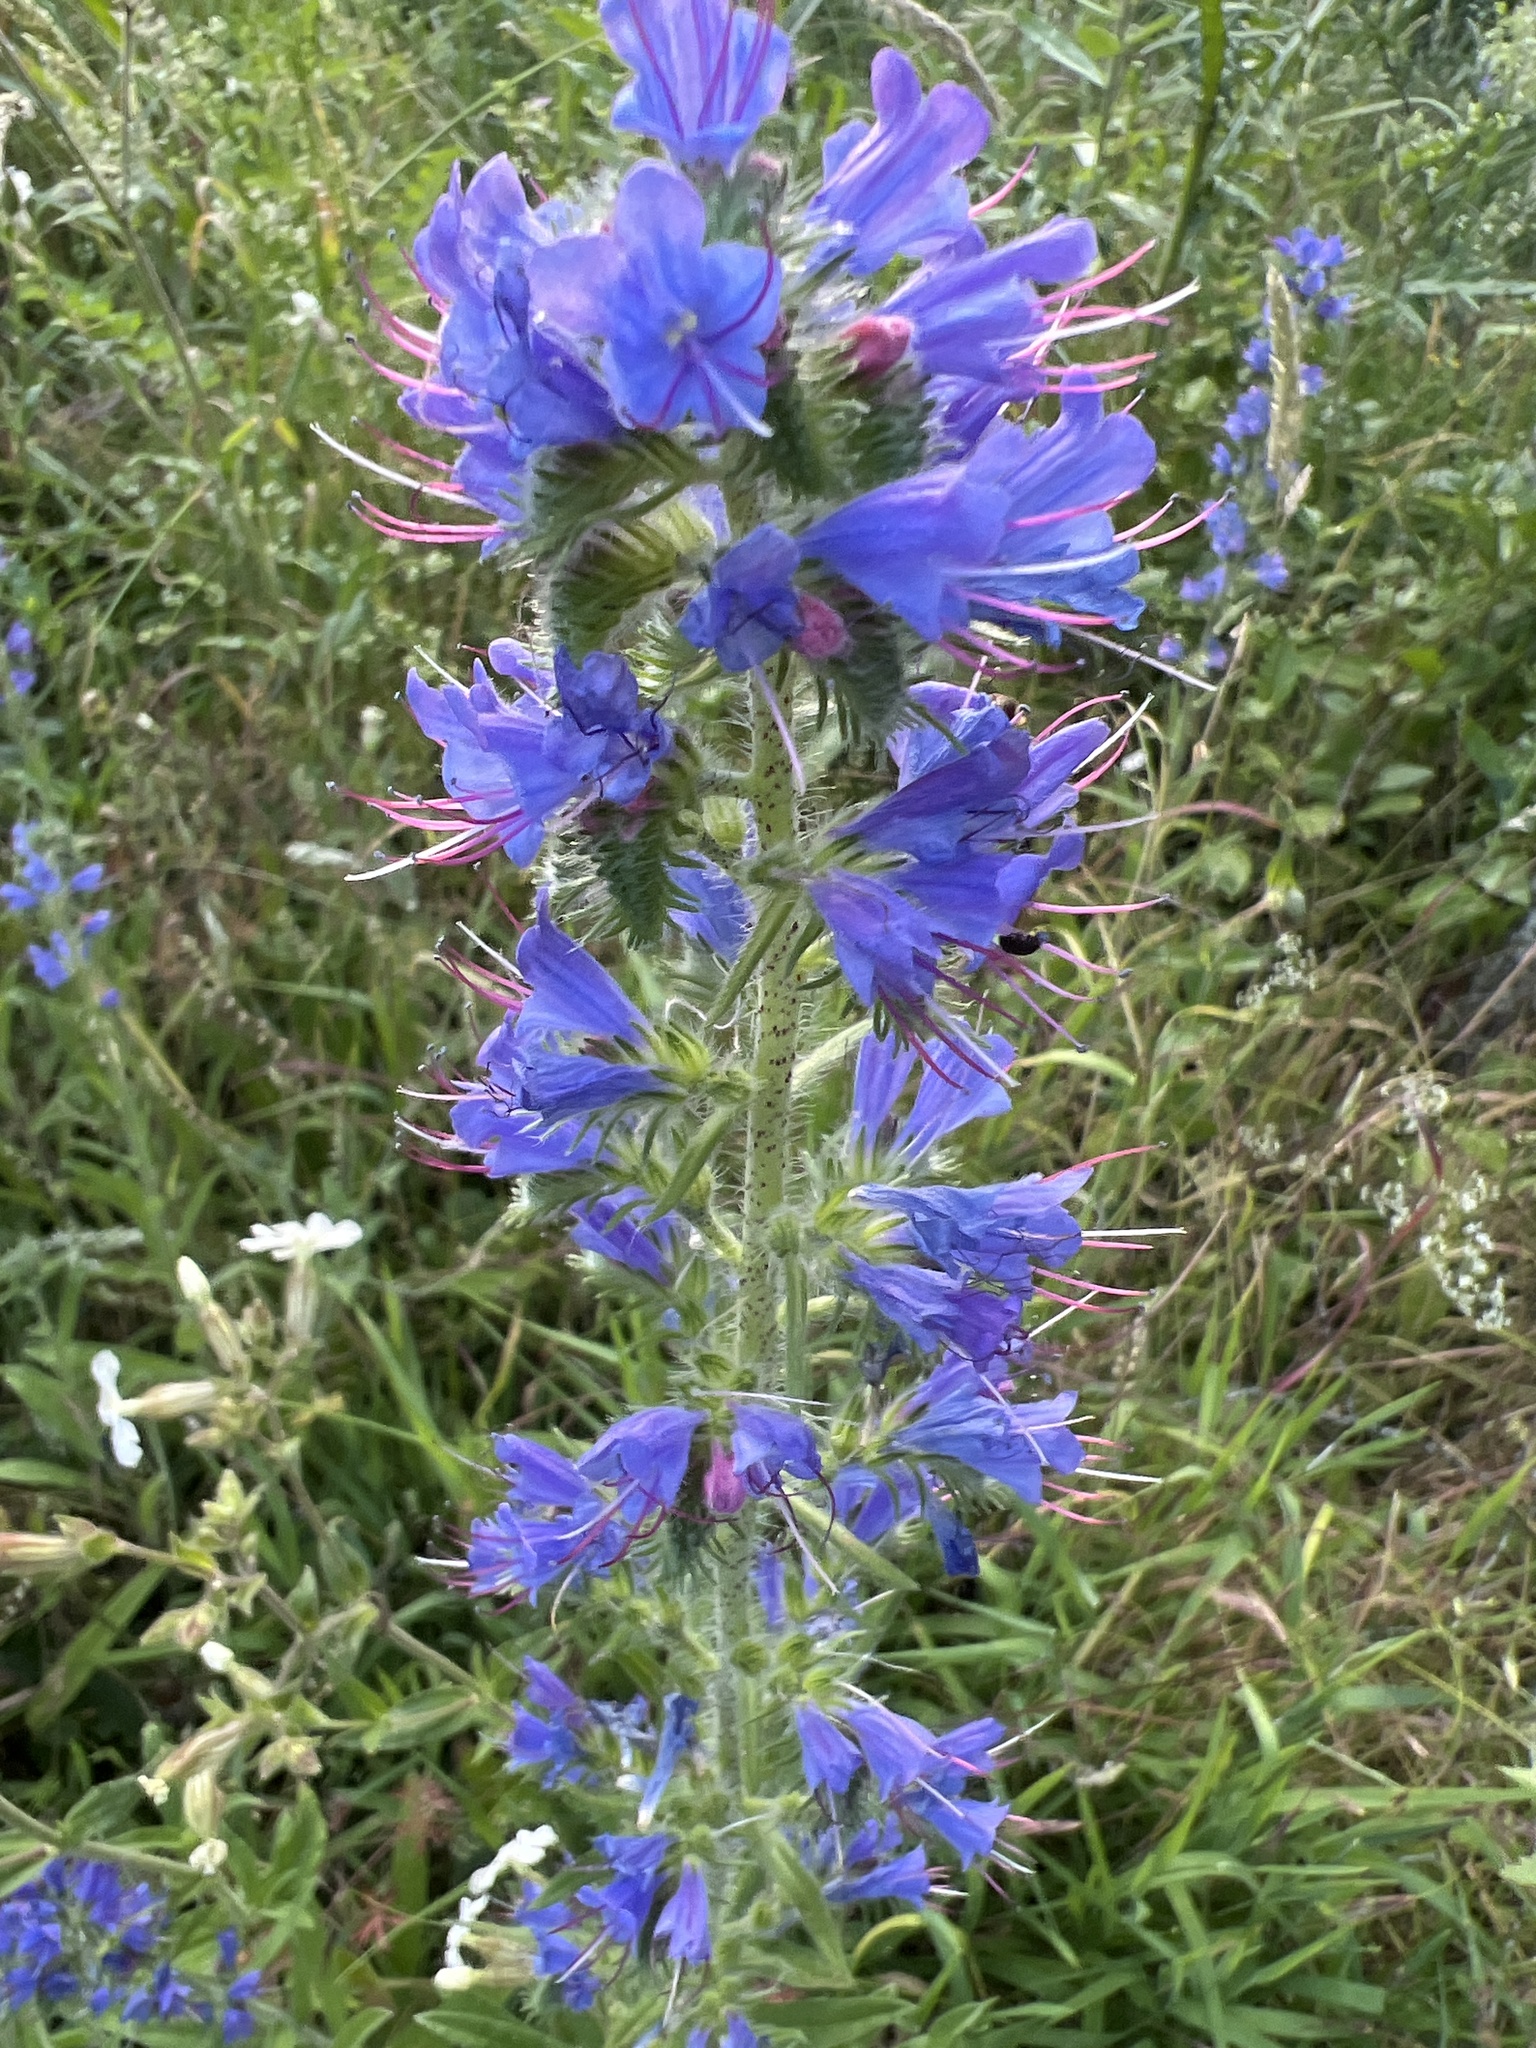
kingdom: Plantae
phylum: Tracheophyta
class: Magnoliopsida
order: Boraginales
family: Boraginaceae
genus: Echium
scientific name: Echium vulgare
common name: Common viper's bugloss
